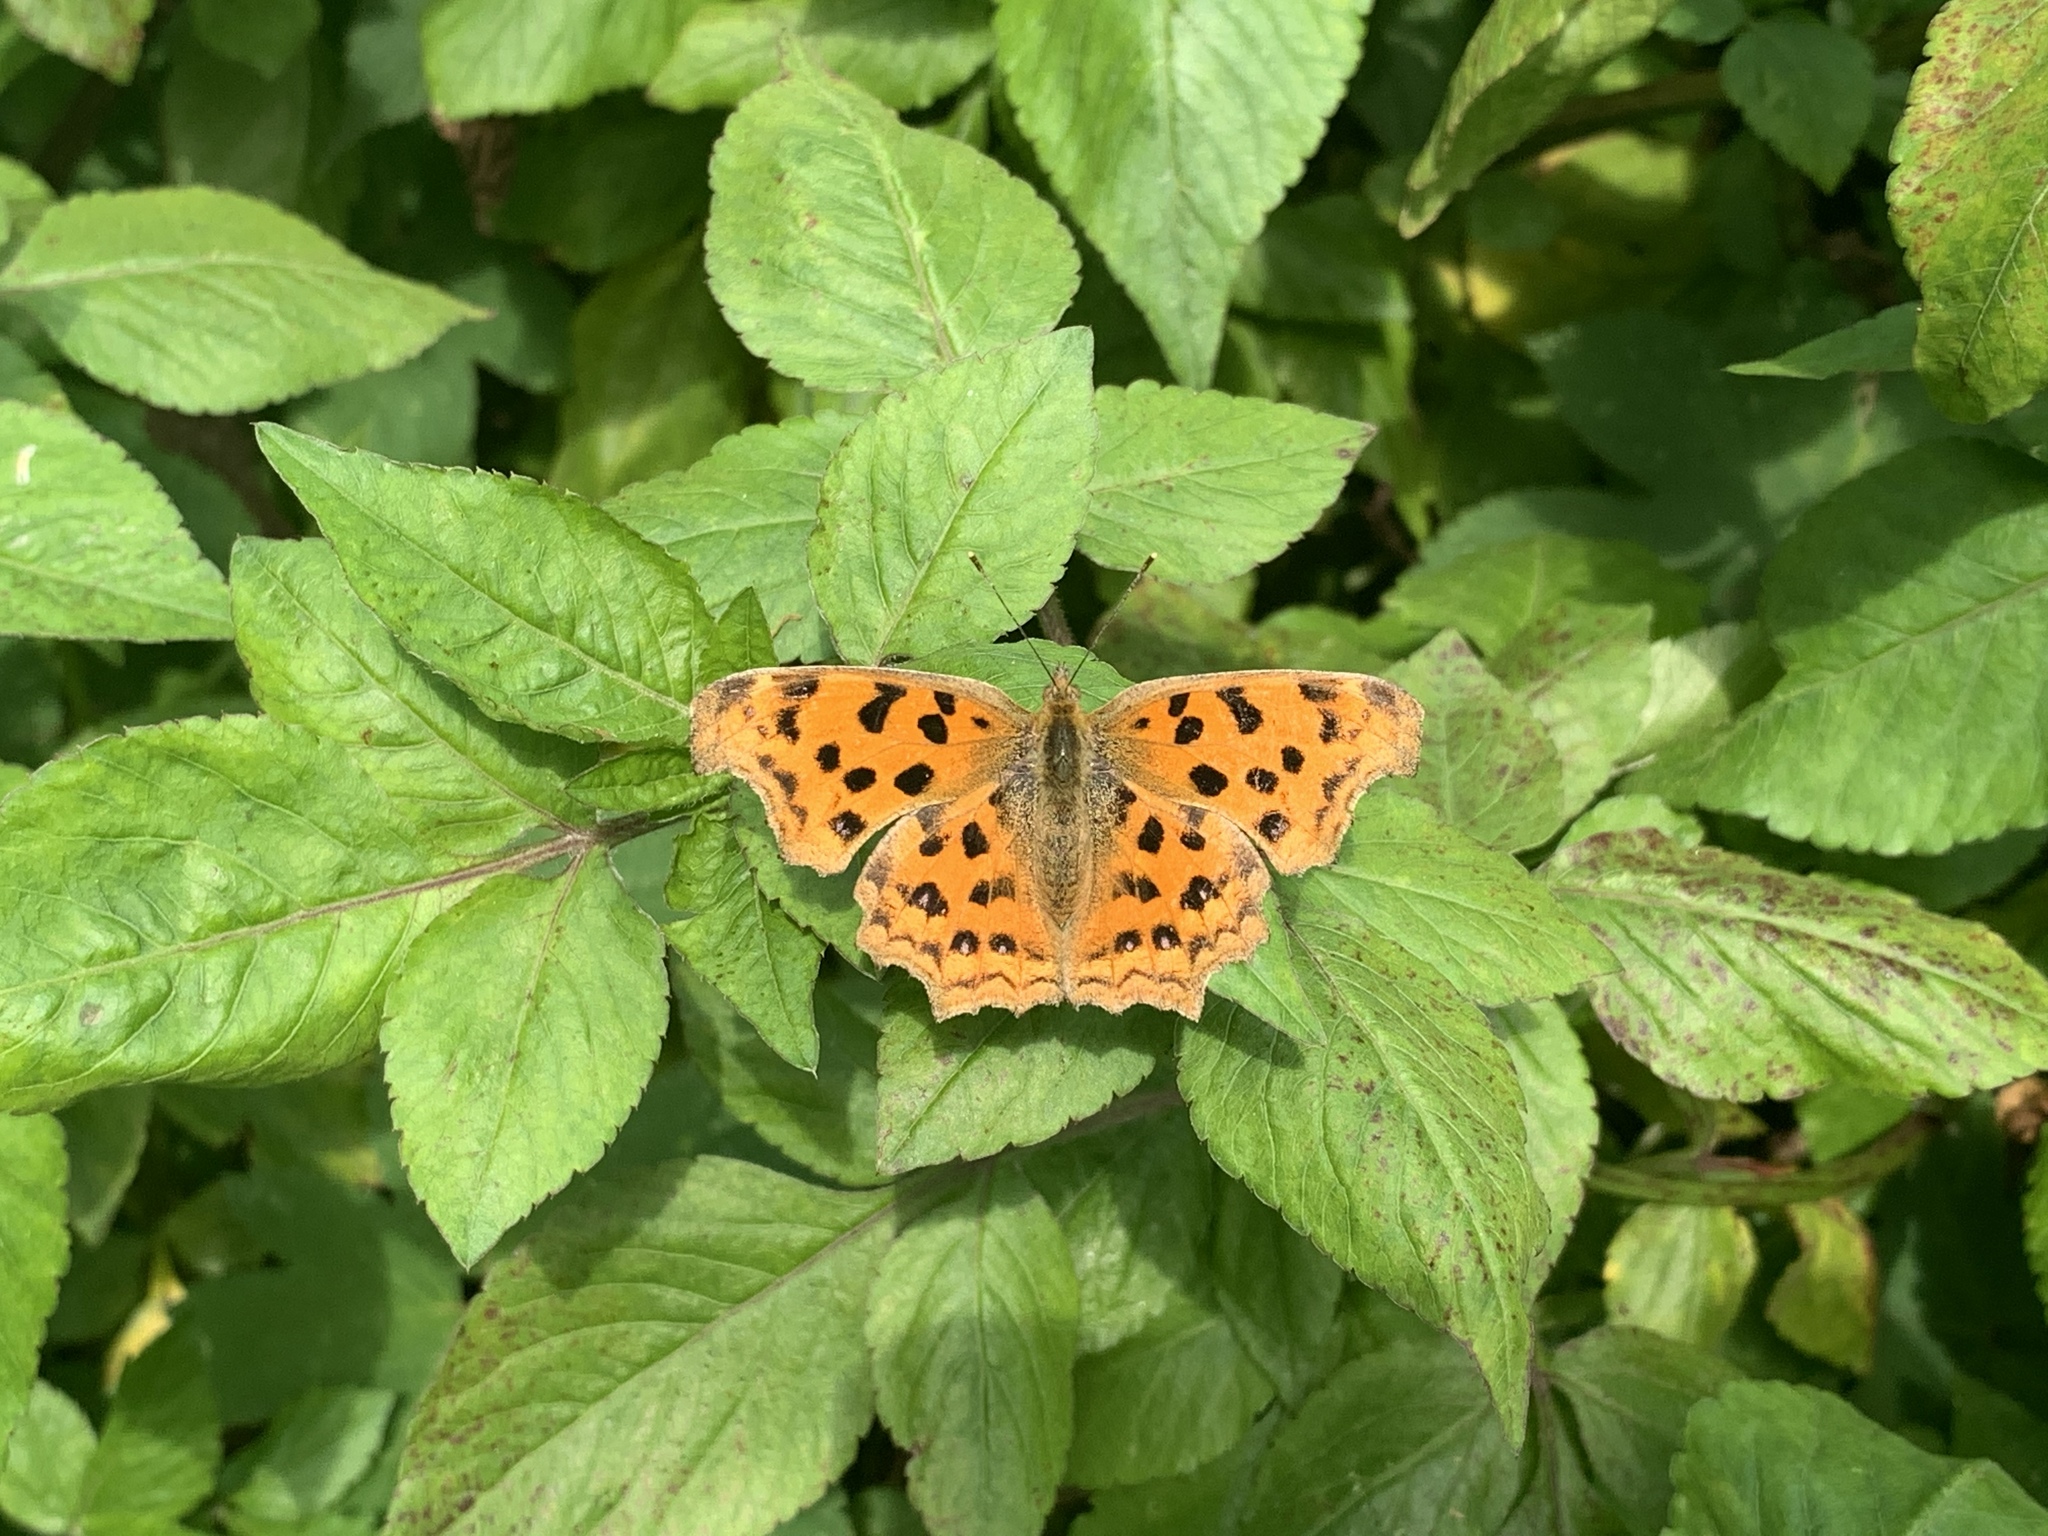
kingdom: Animalia
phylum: Arthropoda
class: Insecta
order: Lepidoptera
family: Nymphalidae
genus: Polygonia
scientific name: Polygonia c-aureum
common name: Asian comma
